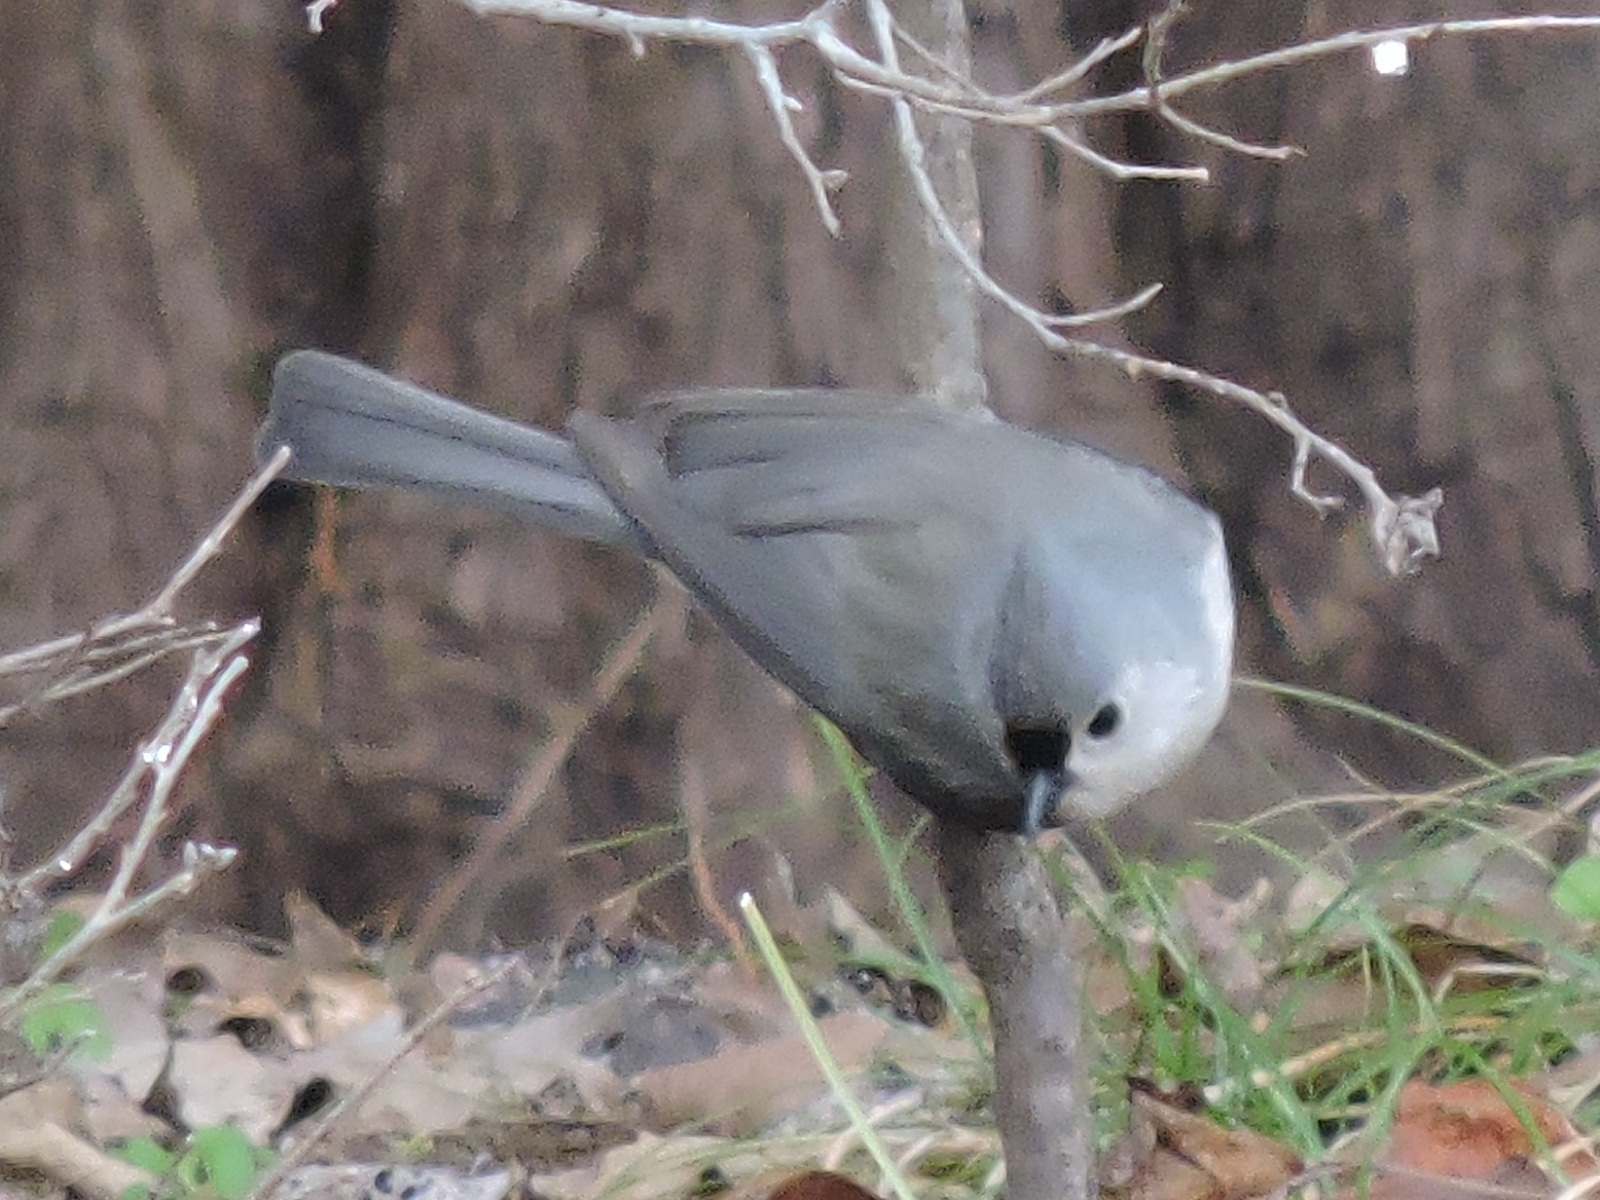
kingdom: Animalia
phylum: Chordata
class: Aves
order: Passeriformes
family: Paridae
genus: Baeolophus
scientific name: Baeolophus bicolor
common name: Tufted titmouse
